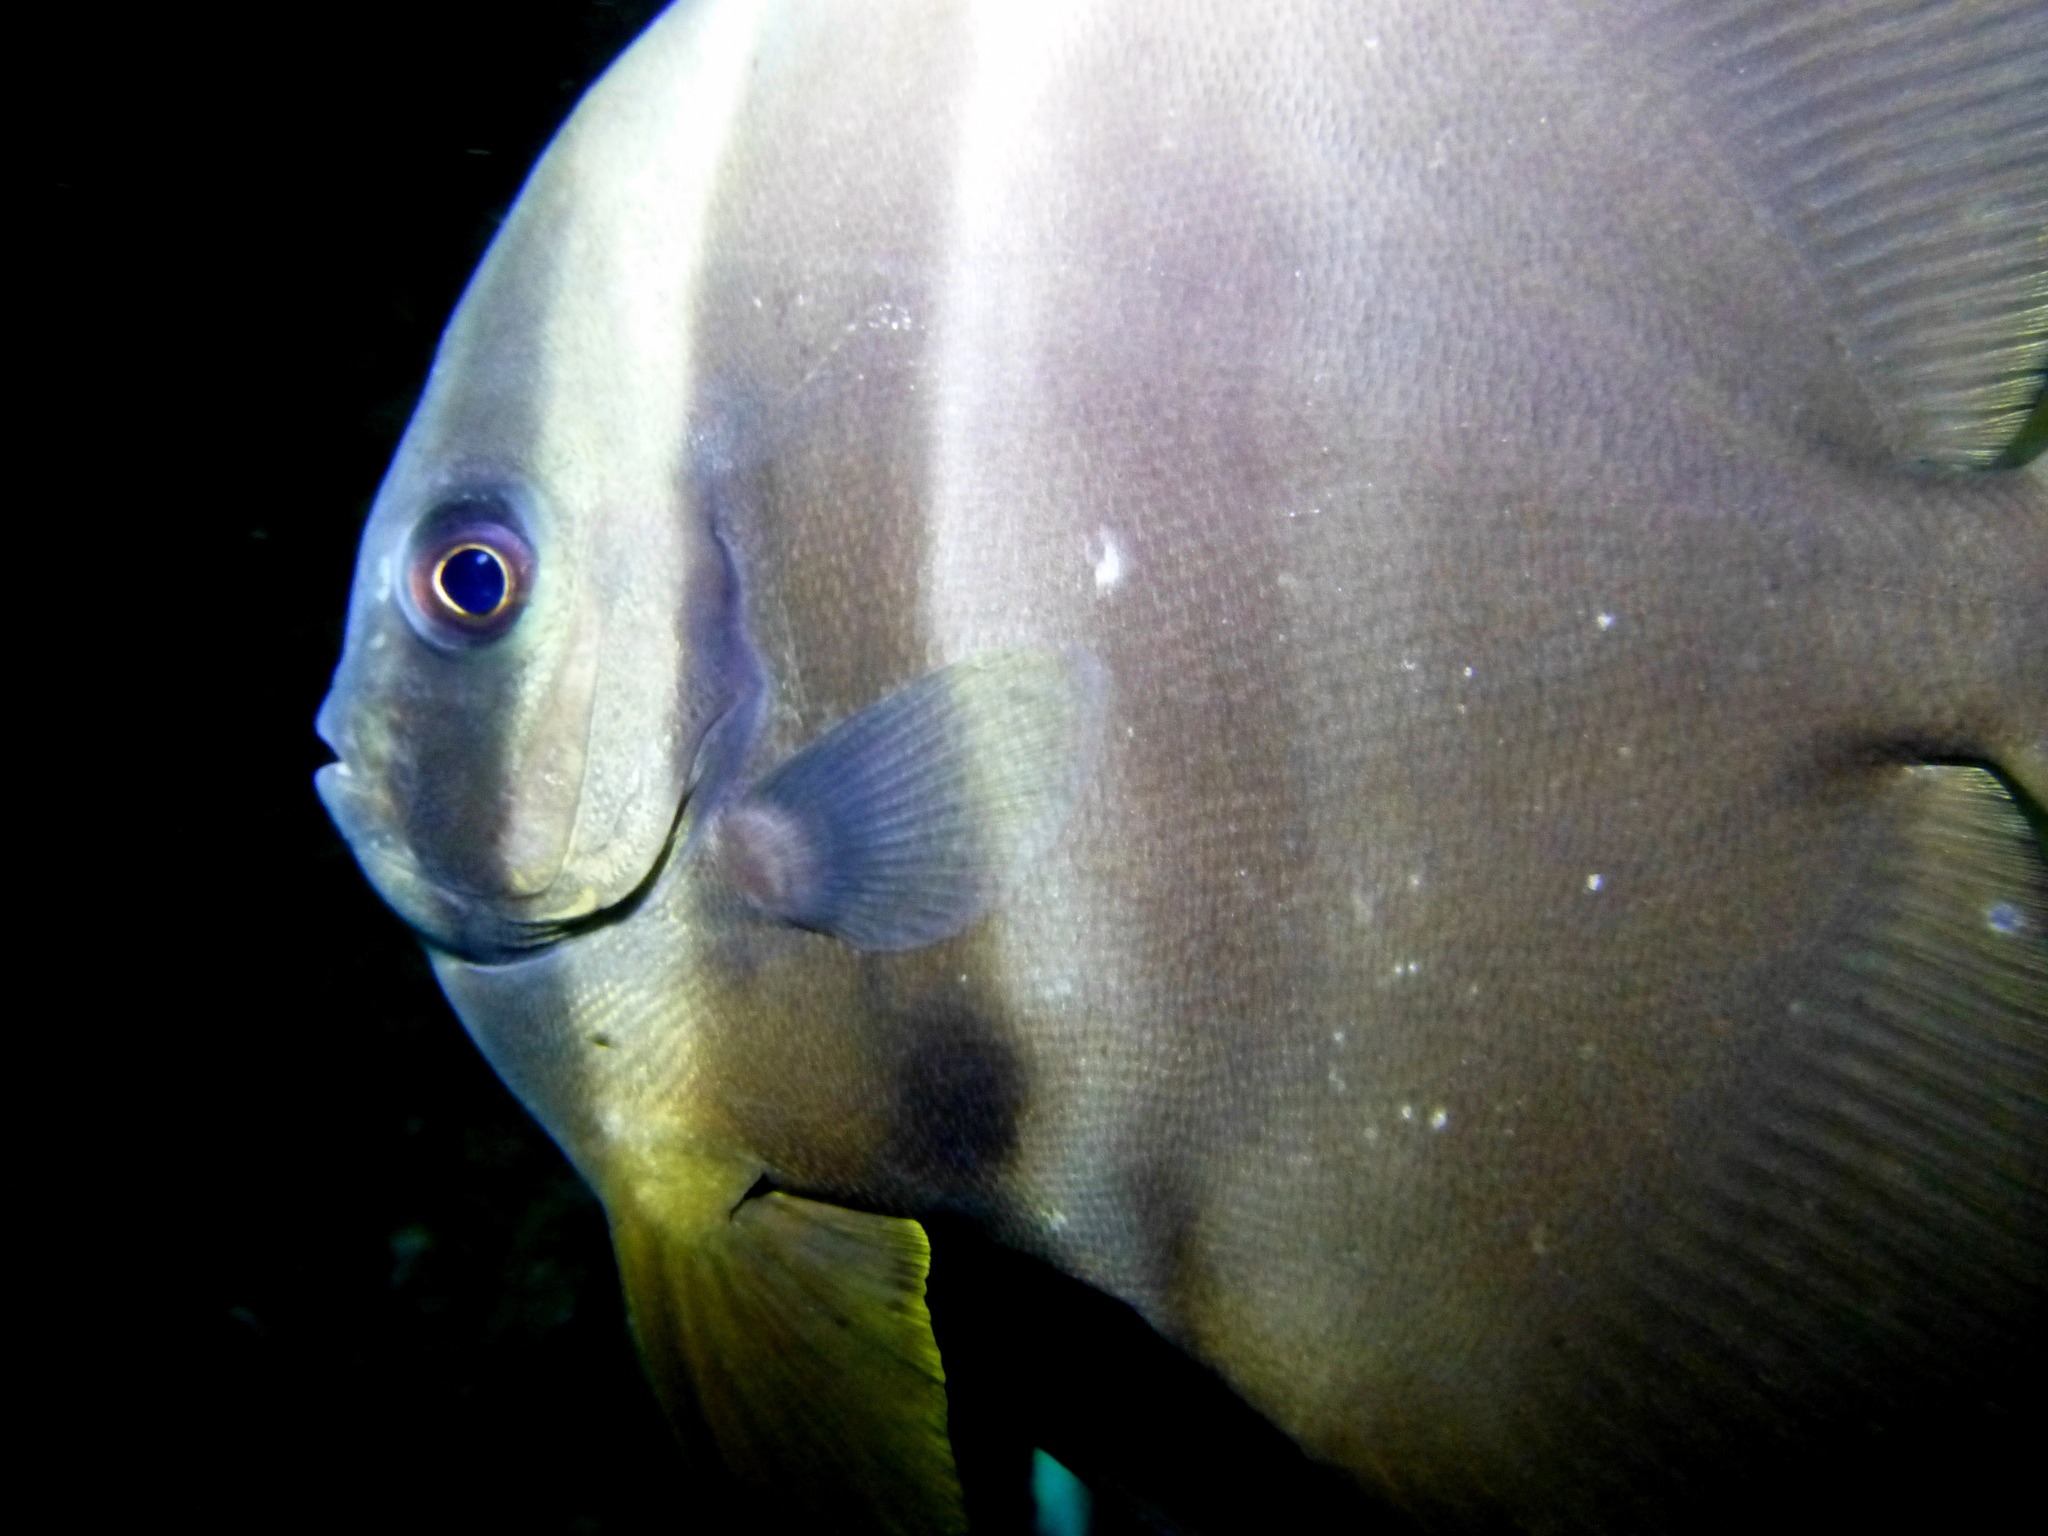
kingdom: Animalia
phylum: Chordata
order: Perciformes
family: Ephippidae
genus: Platax
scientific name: Platax teira
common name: Longfin baitfish
